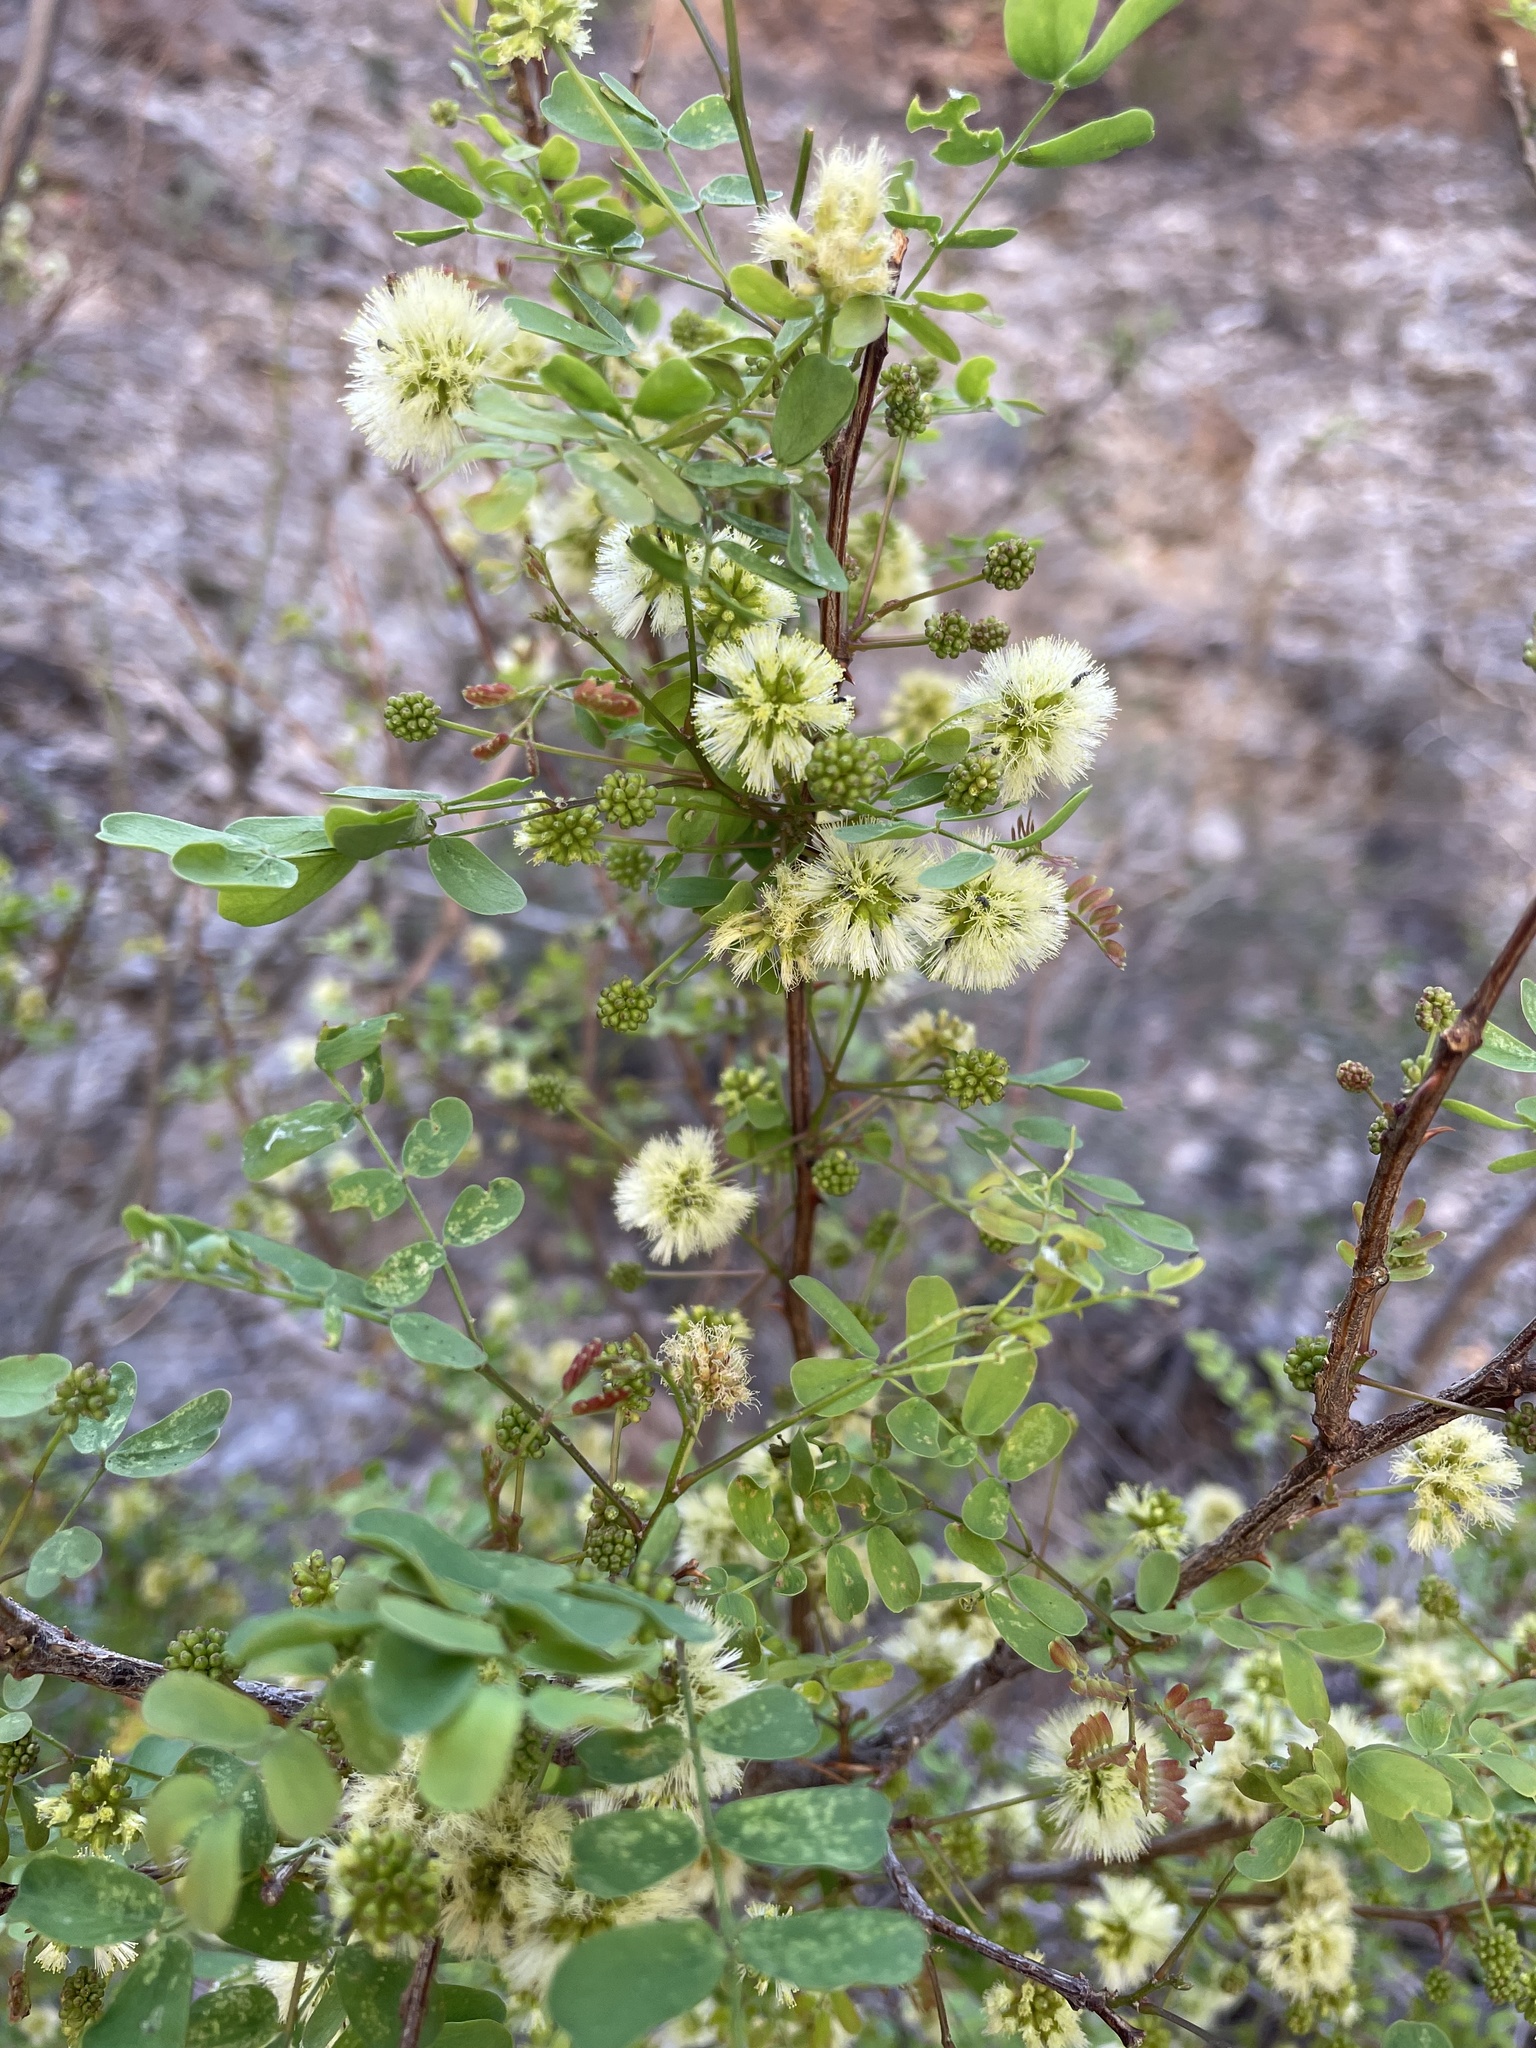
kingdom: Plantae
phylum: Tracheophyta
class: Magnoliopsida
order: Fabales
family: Fabaceae
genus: Senegalia
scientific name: Senegalia roemeriana
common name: Roemer's acacia
